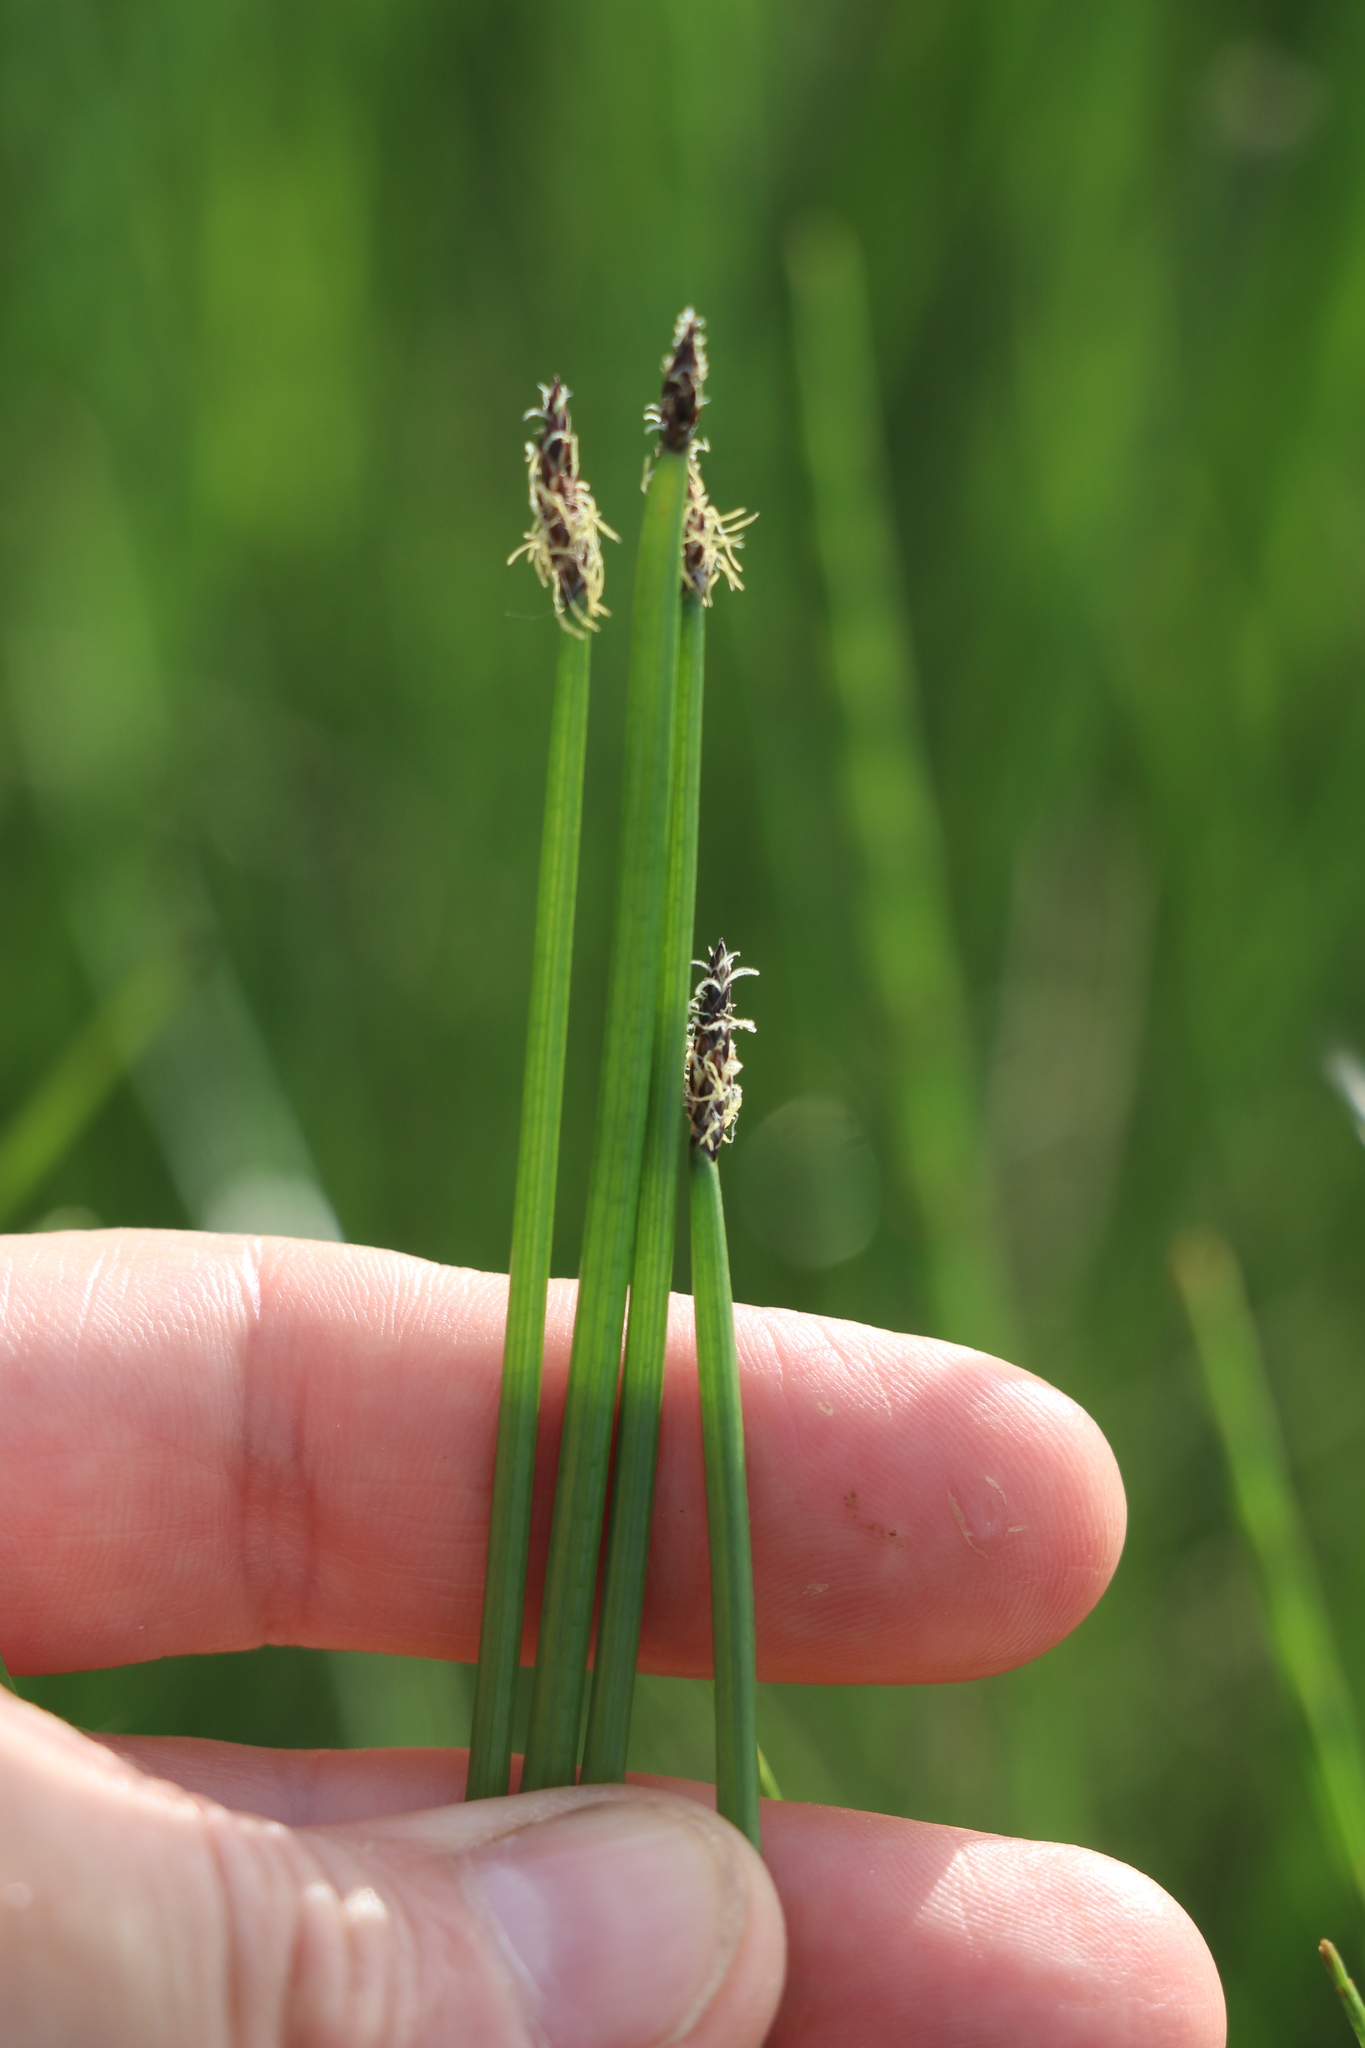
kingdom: Plantae
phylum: Tracheophyta
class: Liliopsida
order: Poales
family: Cyperaceae
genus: Eleocharis
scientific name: Eleocharis palustris
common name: Common spike-rush
